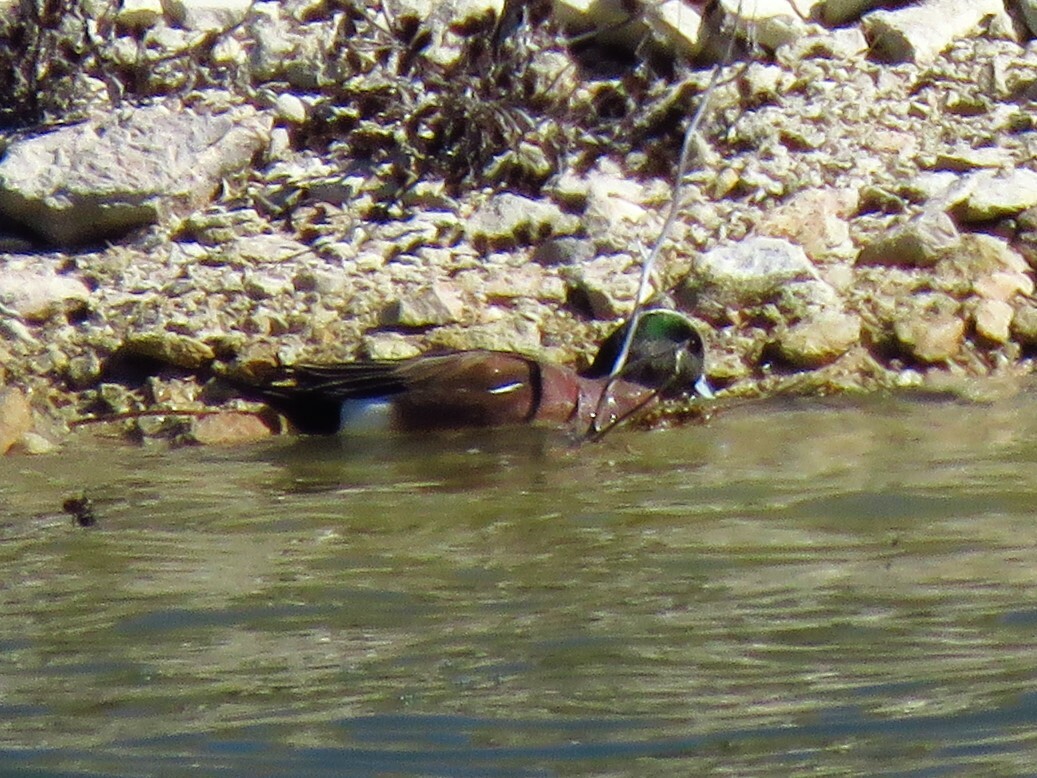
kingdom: Animalia
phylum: Chordata
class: Aves
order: Anseriformes
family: Anatidae
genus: Mareca
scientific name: Mareca americana
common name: American wigeon
